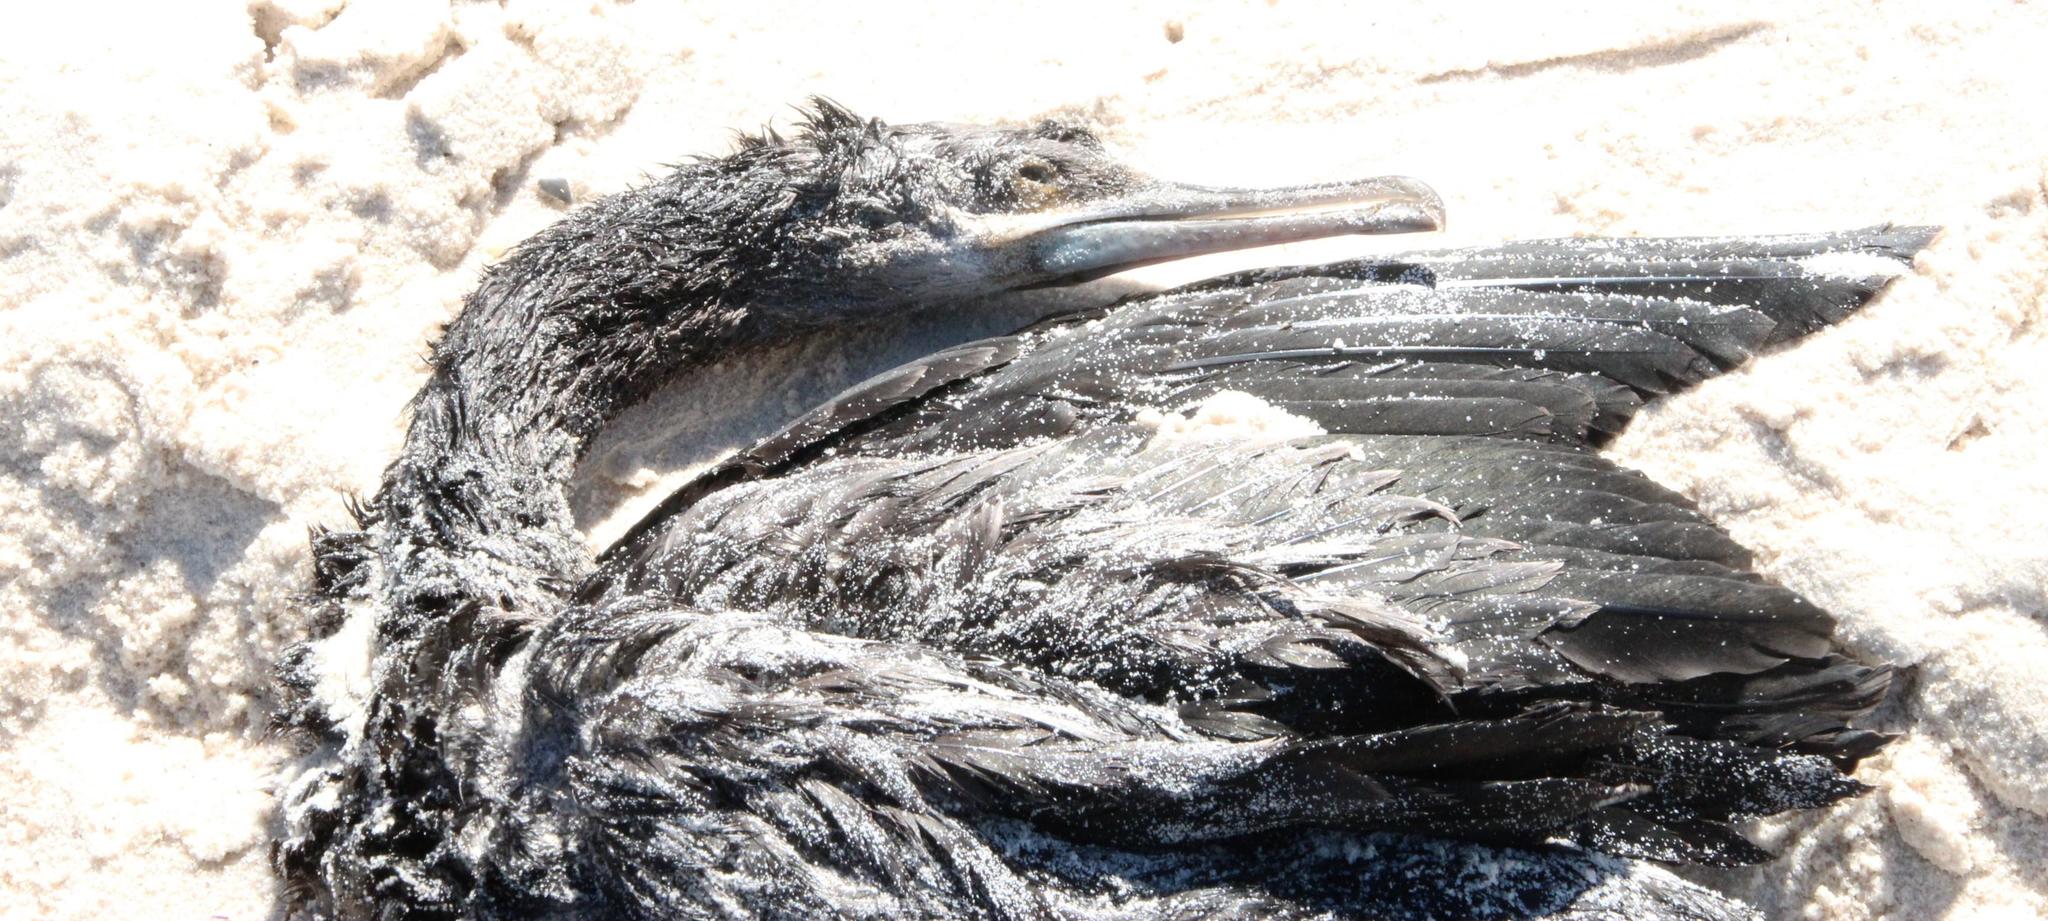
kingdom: Animalia
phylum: Chordata
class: Aves
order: Suliformes
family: Phalacrocoracidae
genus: Phalacrocorax
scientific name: Phalacrocorax capensis
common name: Cape cormorant
